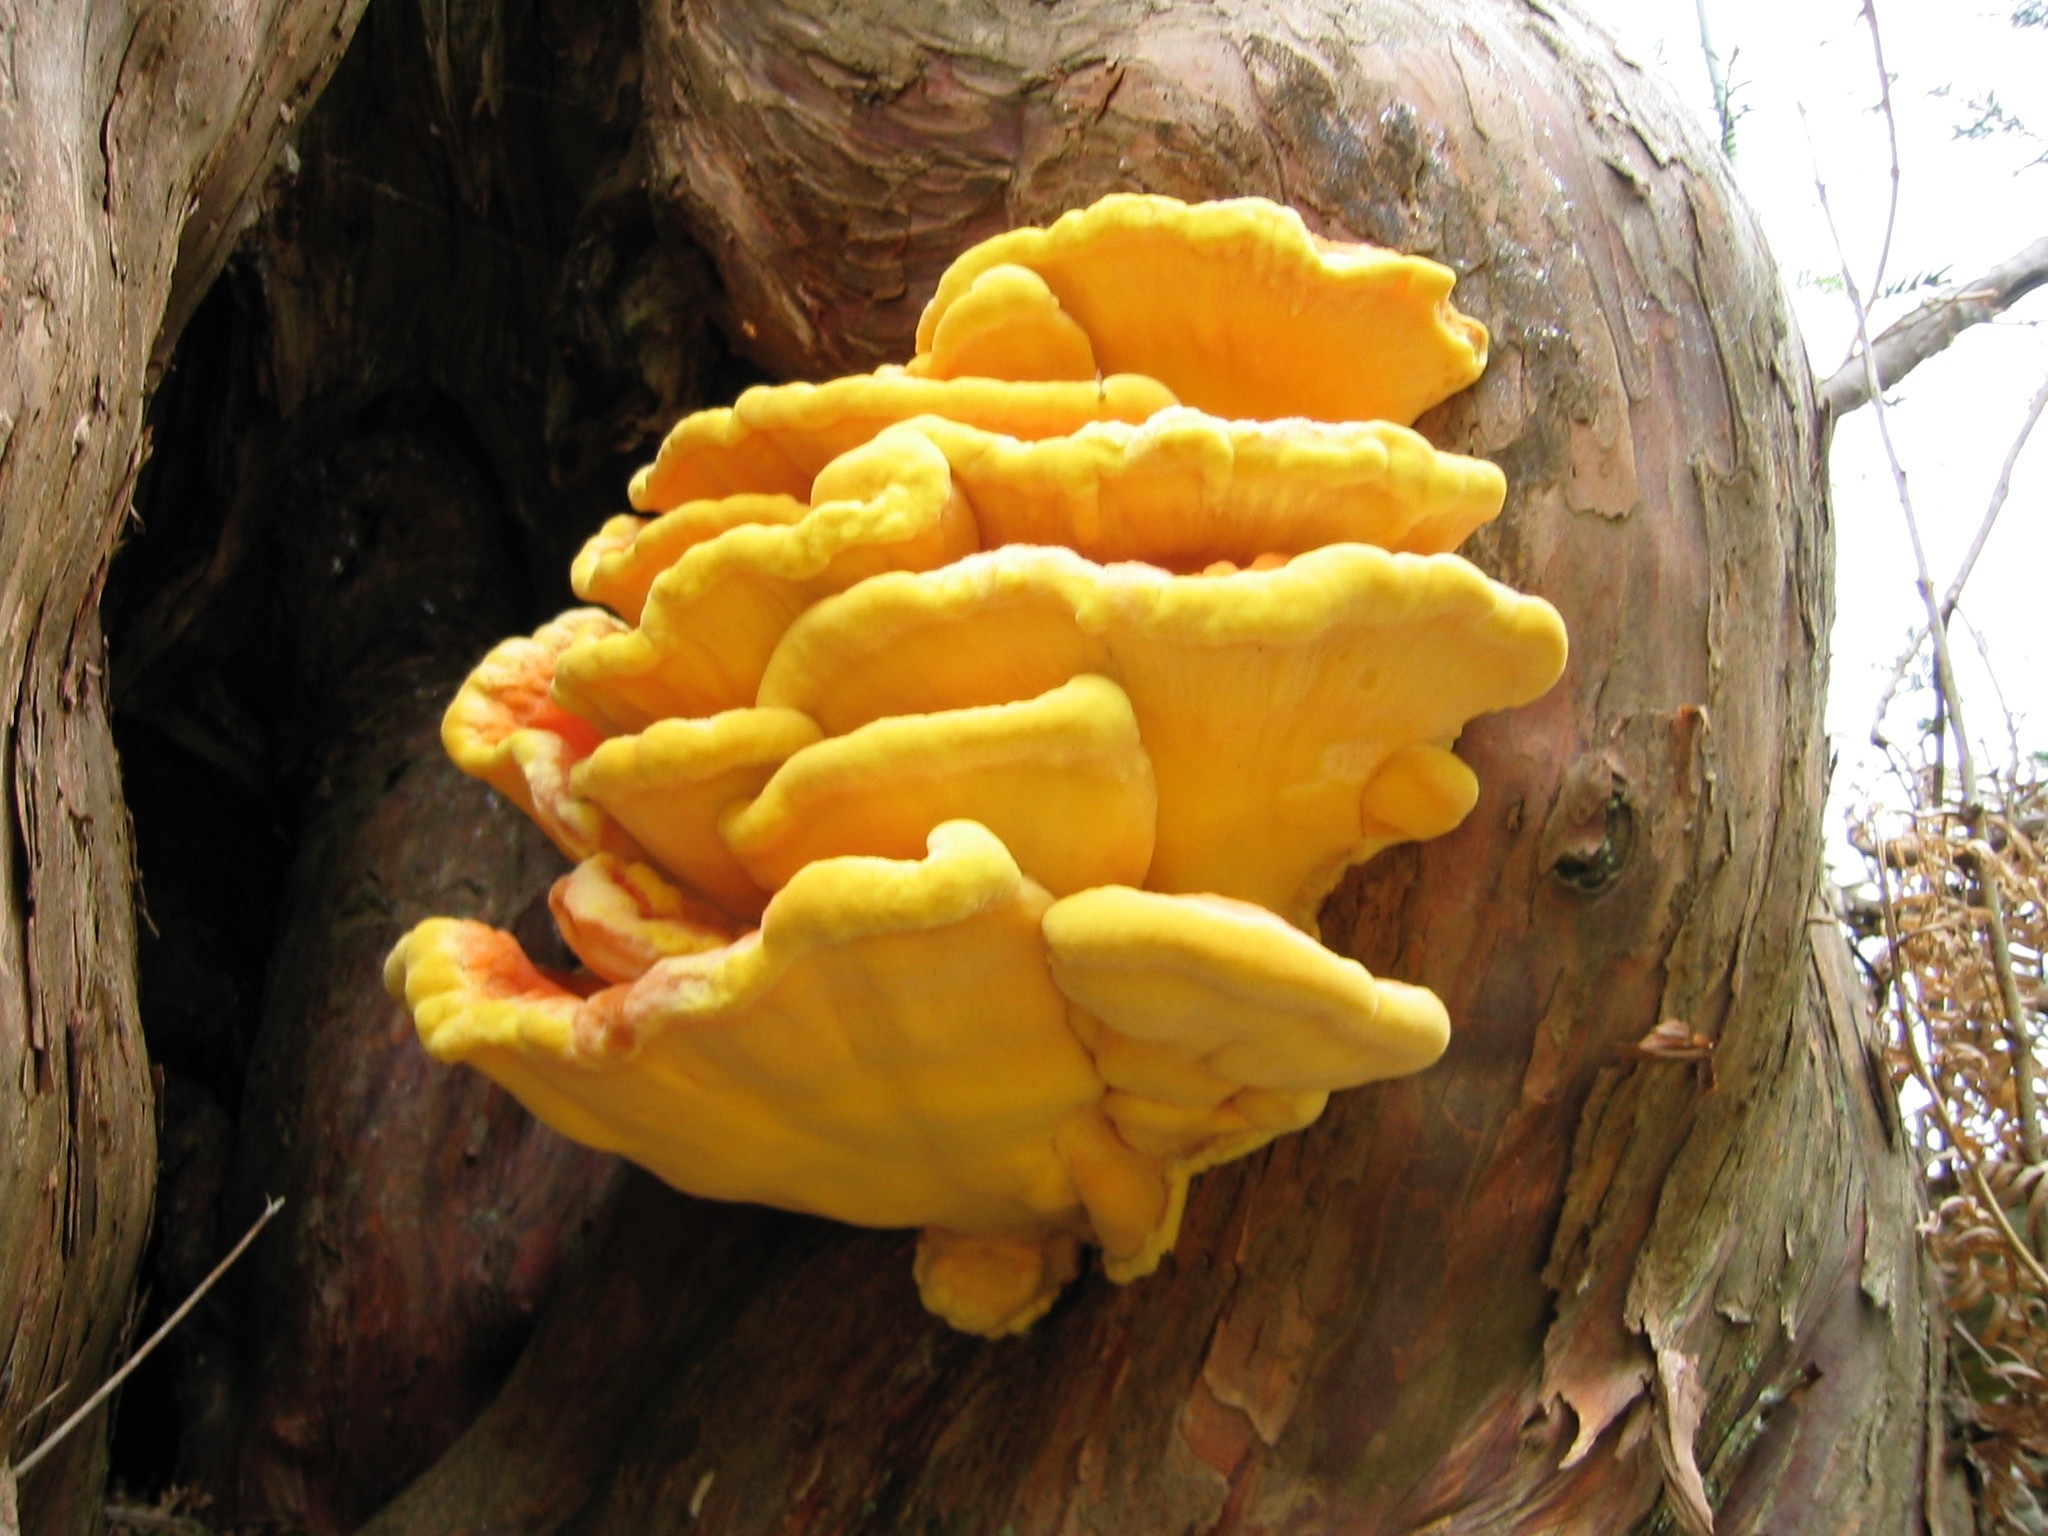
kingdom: Fungi
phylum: Basidiomycota
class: Agaricomycetes
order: Polyporales
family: Laetiporaceae
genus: Laetiporus
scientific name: Laetiporus sulphureus
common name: Chicken of the woods
